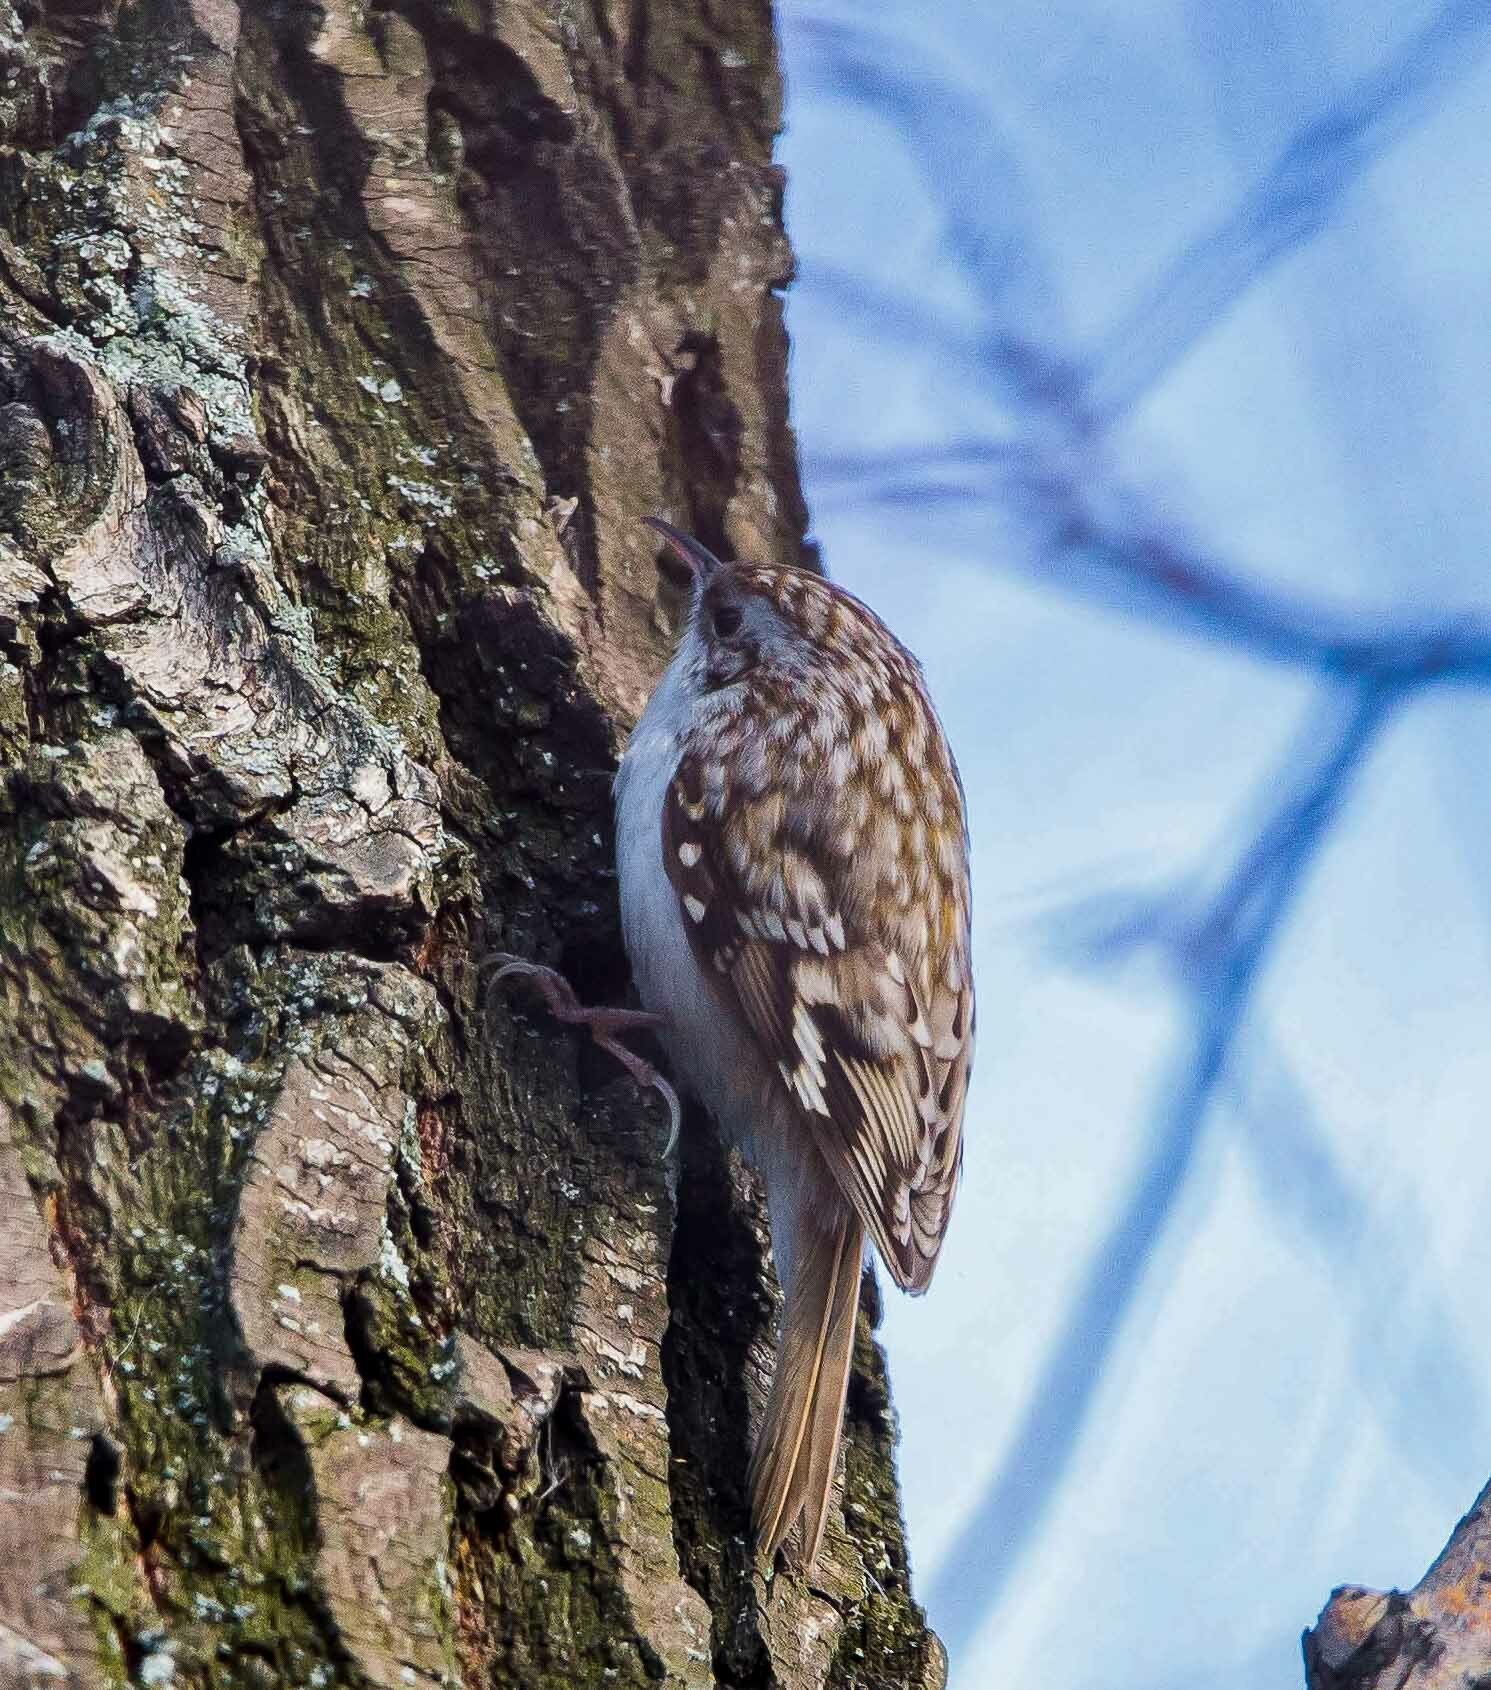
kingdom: Animalia
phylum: Chordata
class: Aves
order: Passeriformes
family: Certhiidae
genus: Certhia
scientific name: Certhia familiaris
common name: Eurasian treecreeper
